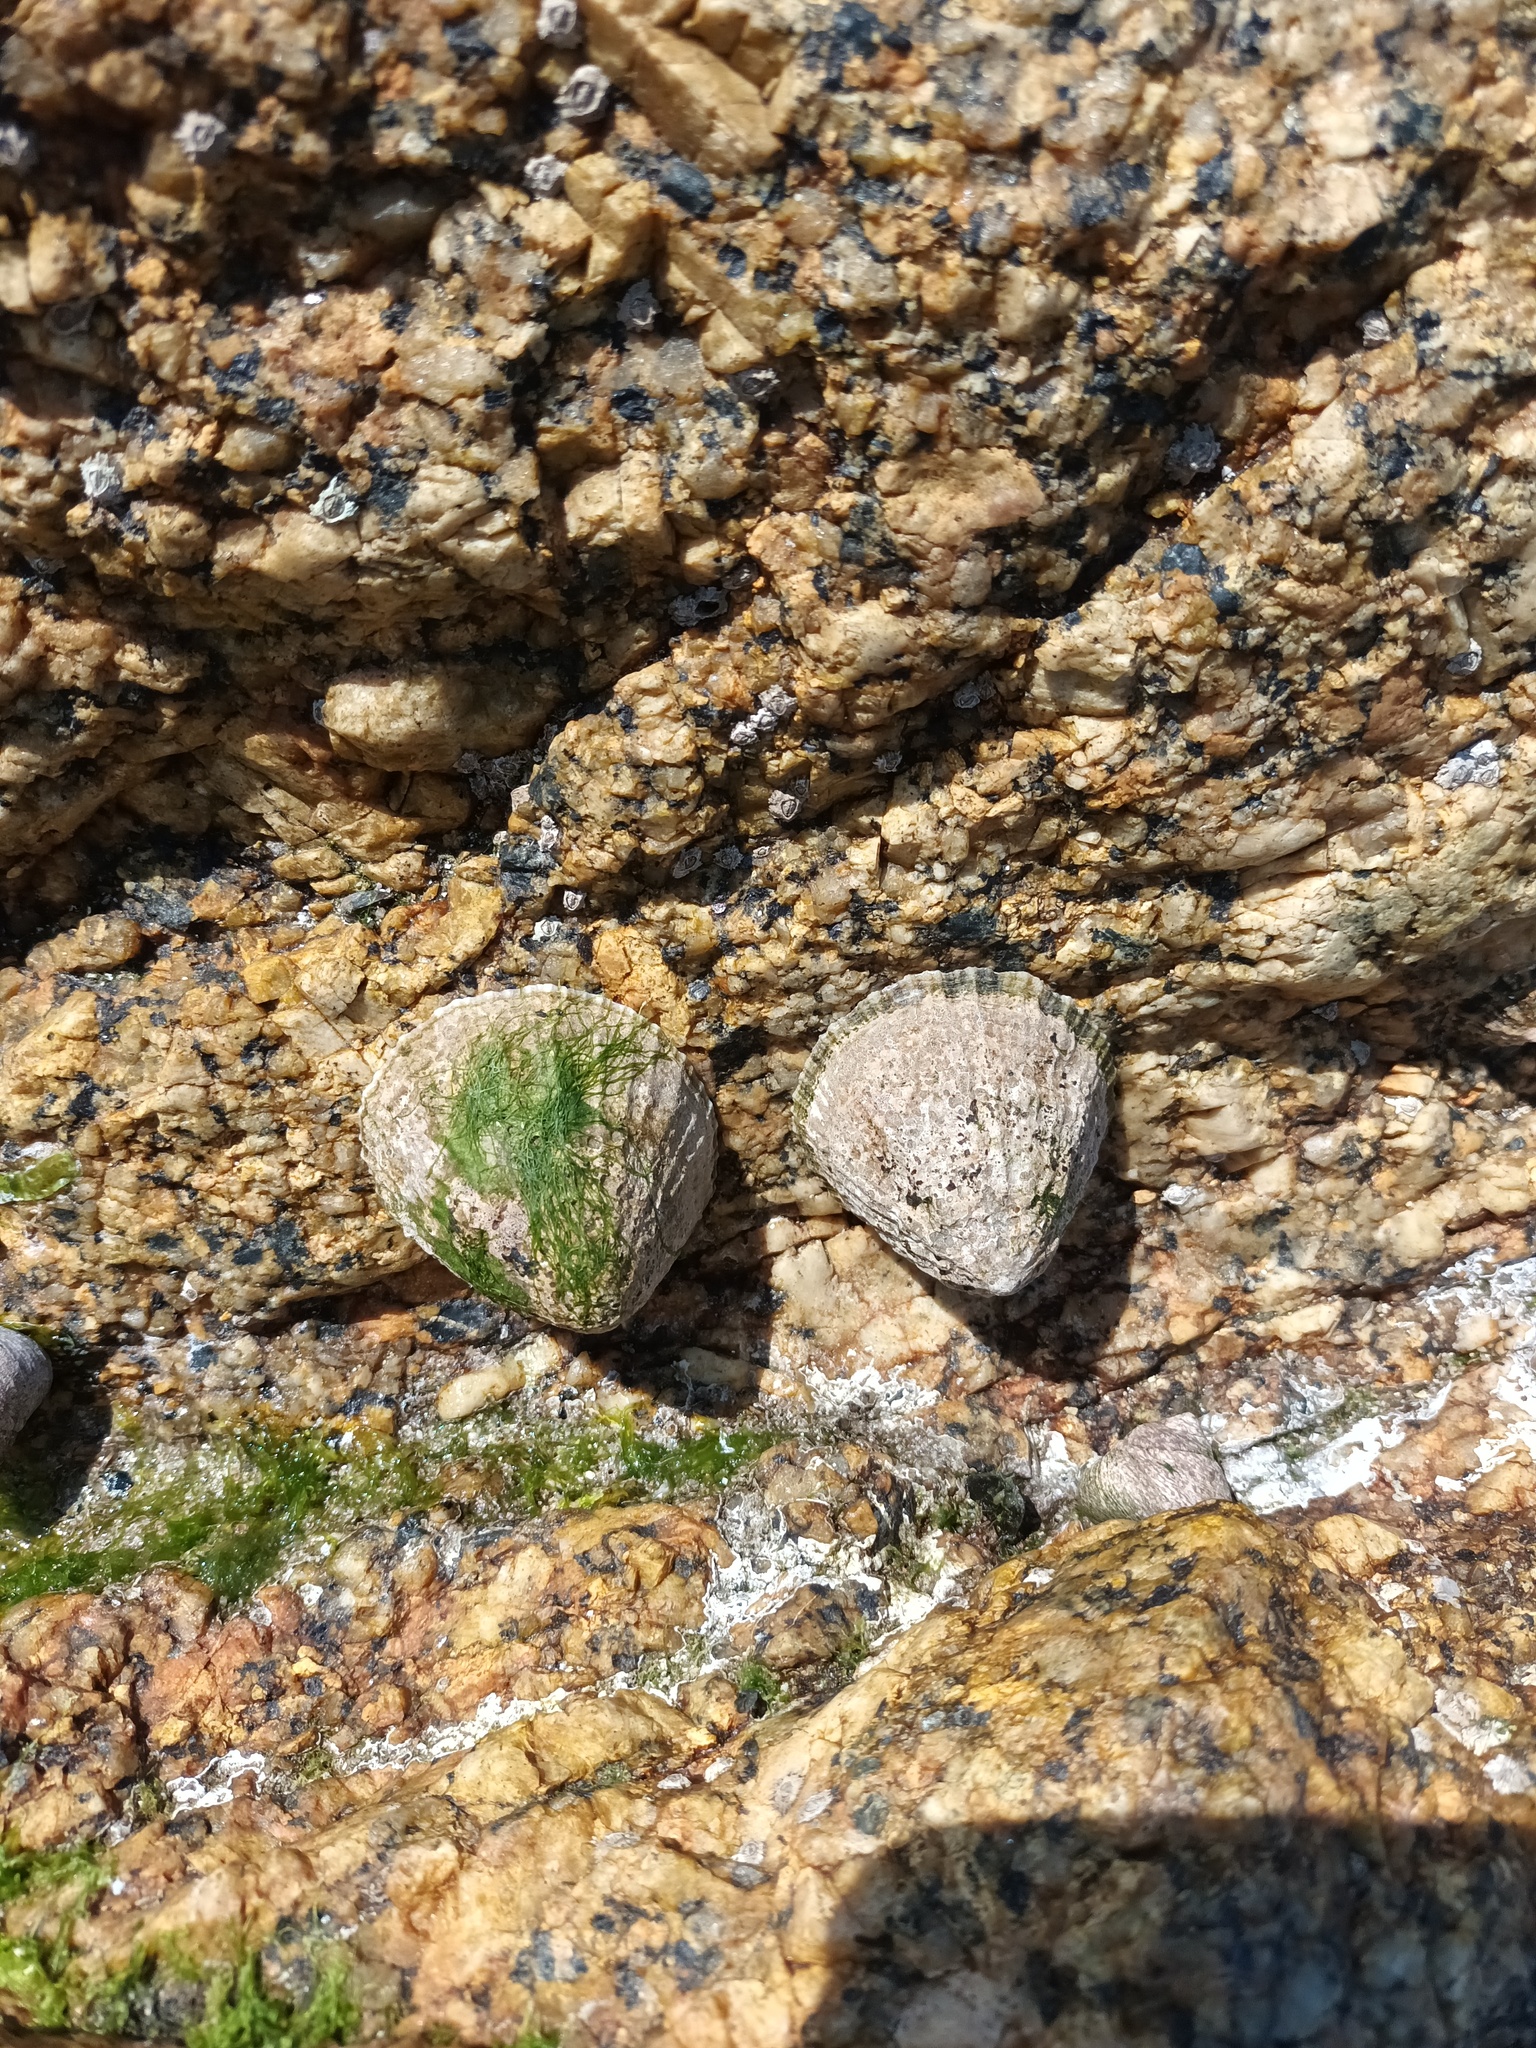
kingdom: Animalia
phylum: Mollusca
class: Gastropoda
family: Patellidae
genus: Patella
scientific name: Patella vulgata
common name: Common limpet
